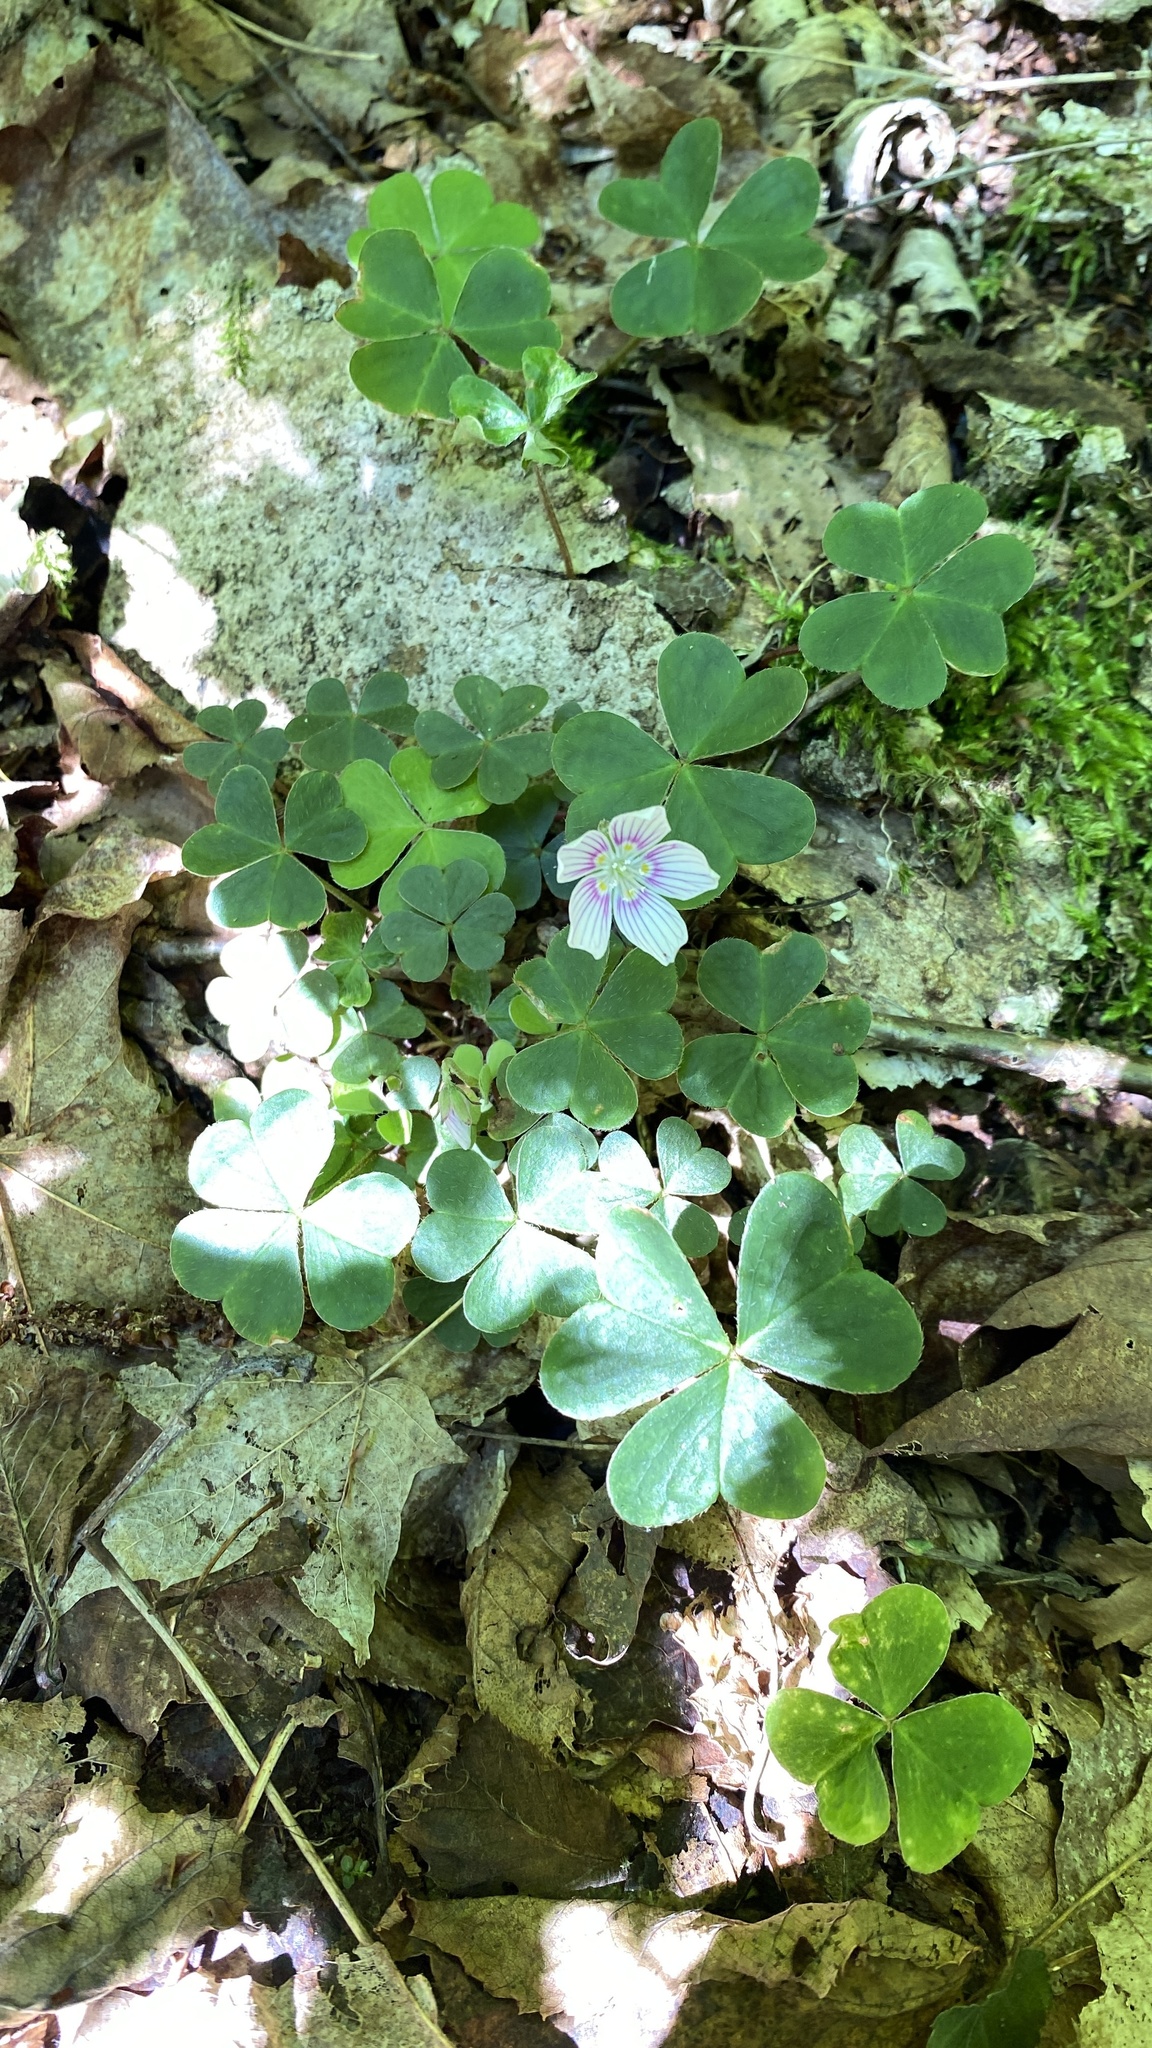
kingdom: Plantae
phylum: Tracheophyta
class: Magnoliopsida
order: Oxalidales
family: Oxalidaceae
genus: Oxalis
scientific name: Oxalis montana
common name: American wood-sorrel
